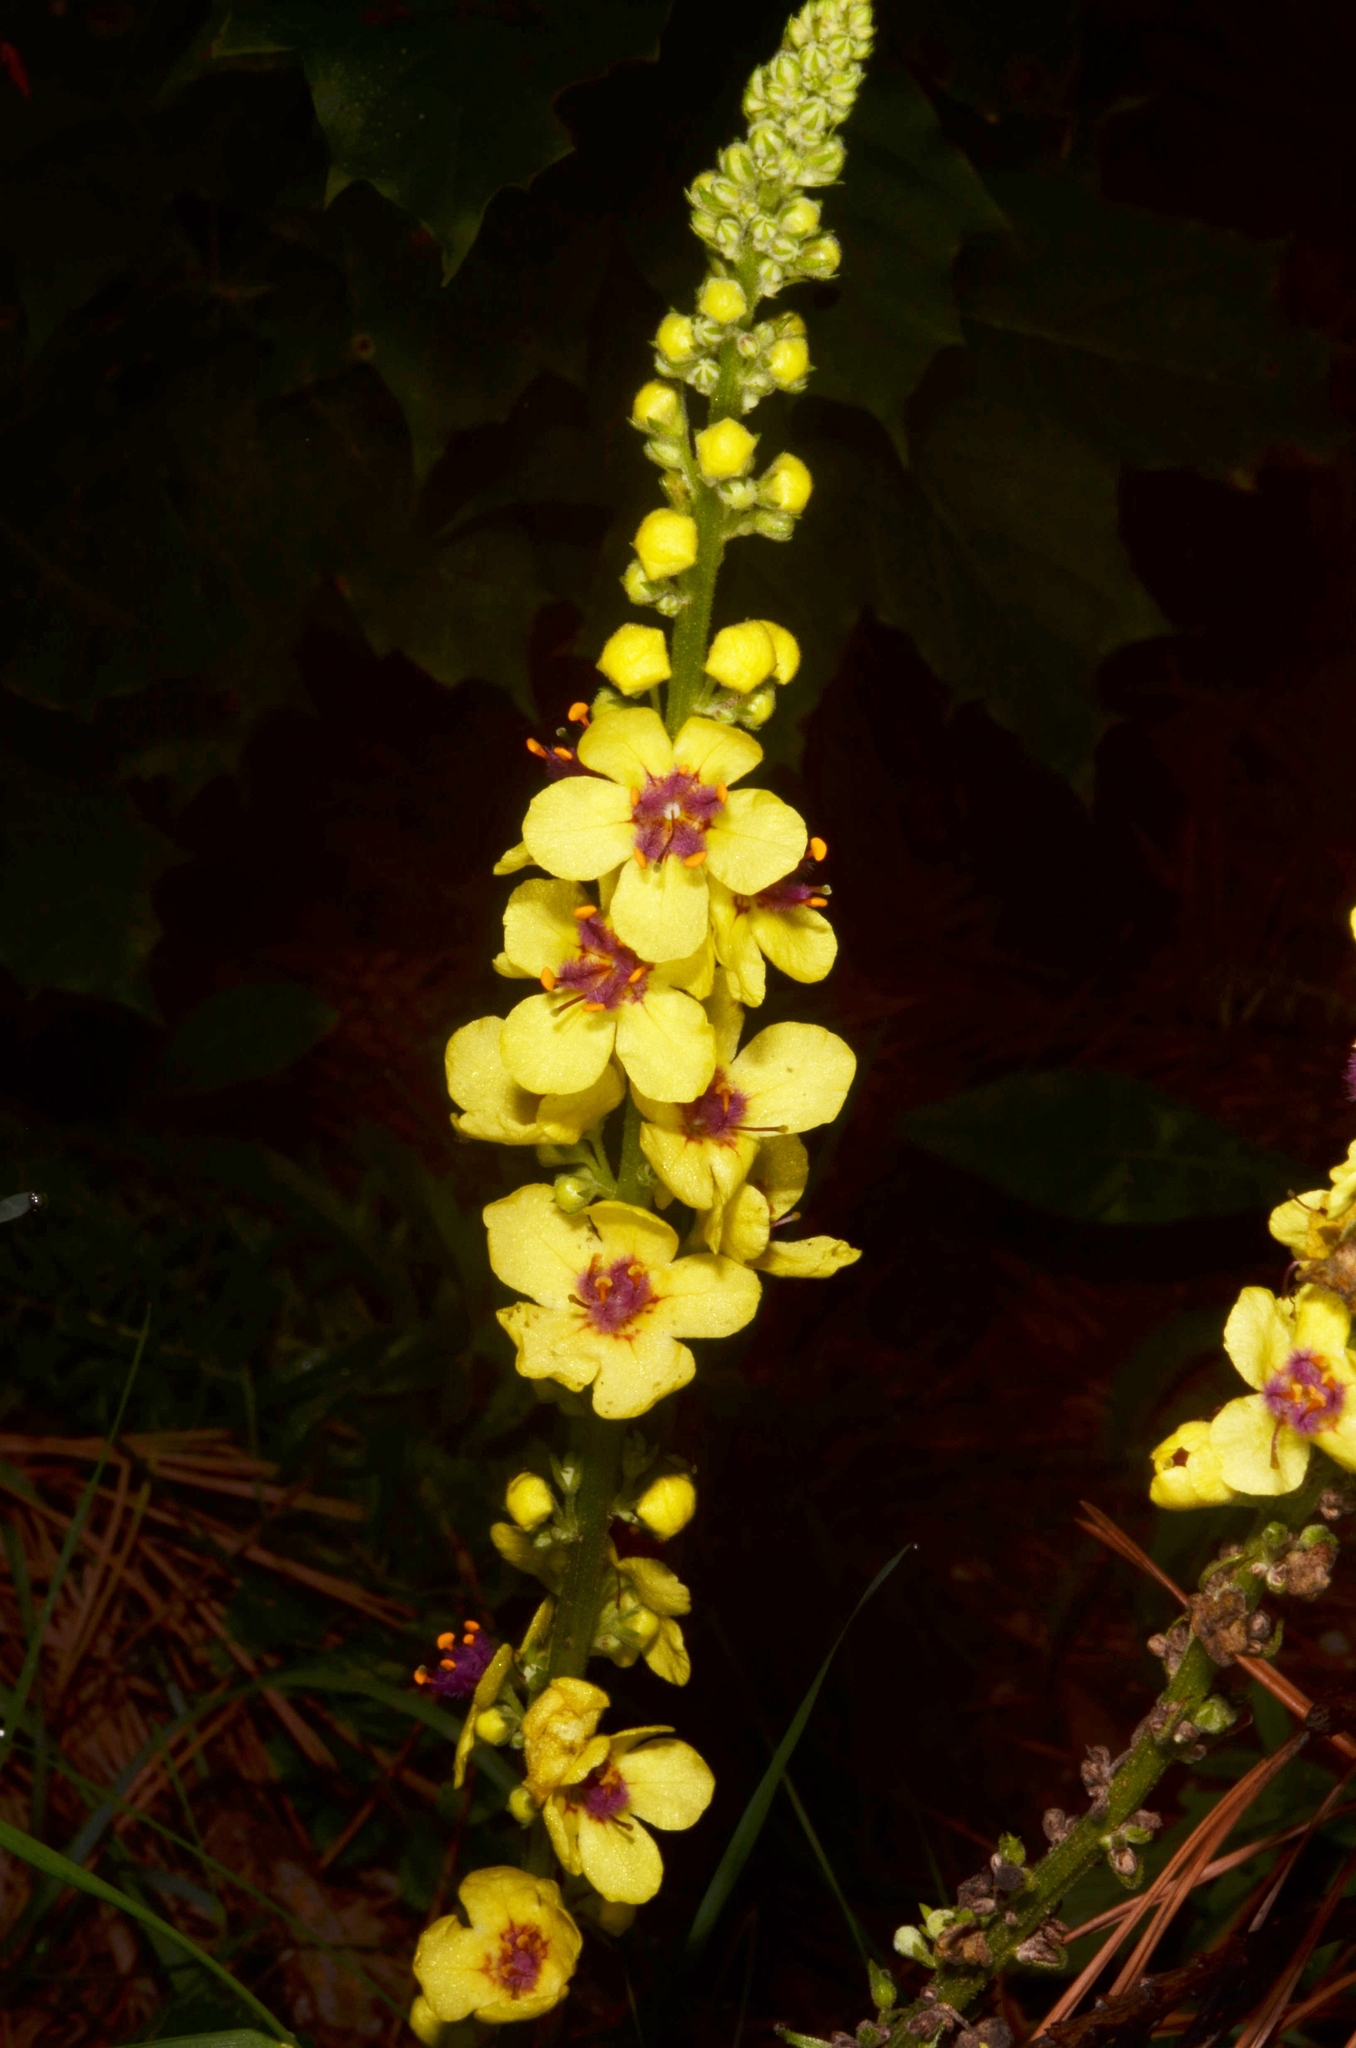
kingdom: Plantae
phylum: Tracheophyta
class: Magnoliopsida
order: Lamiales
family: Scrophulariaceae
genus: Verbascum
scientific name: Verbascum nigrum
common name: Dark mullein
